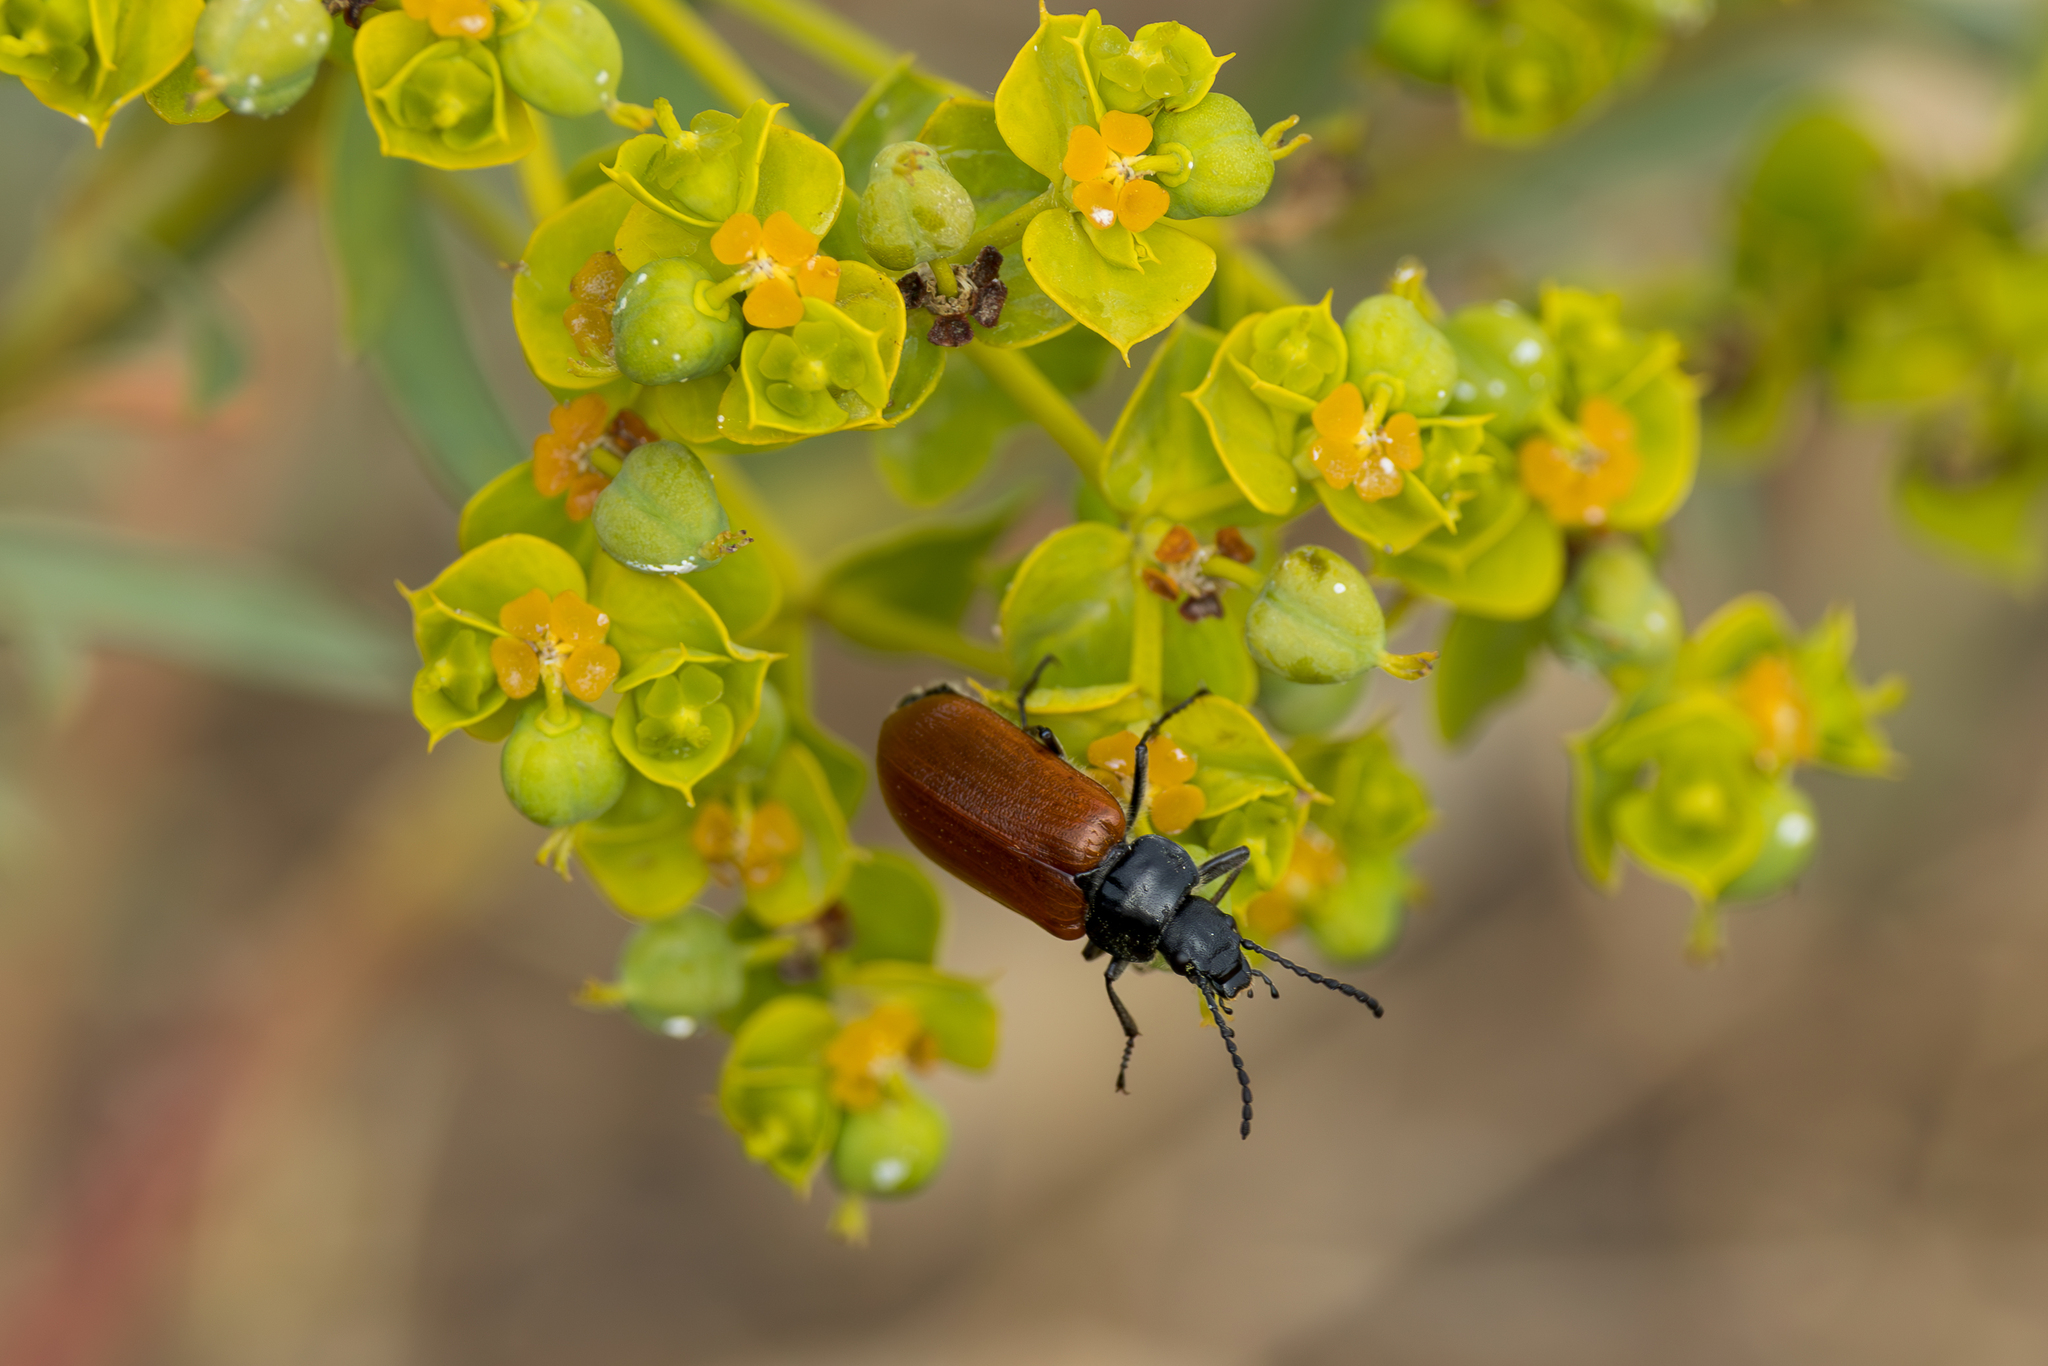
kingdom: Animalia
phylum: Arthropoda
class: Insecta
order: Coleoptera
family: Tenebrionidae
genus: Omophlus
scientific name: Omophlus lepturoides
